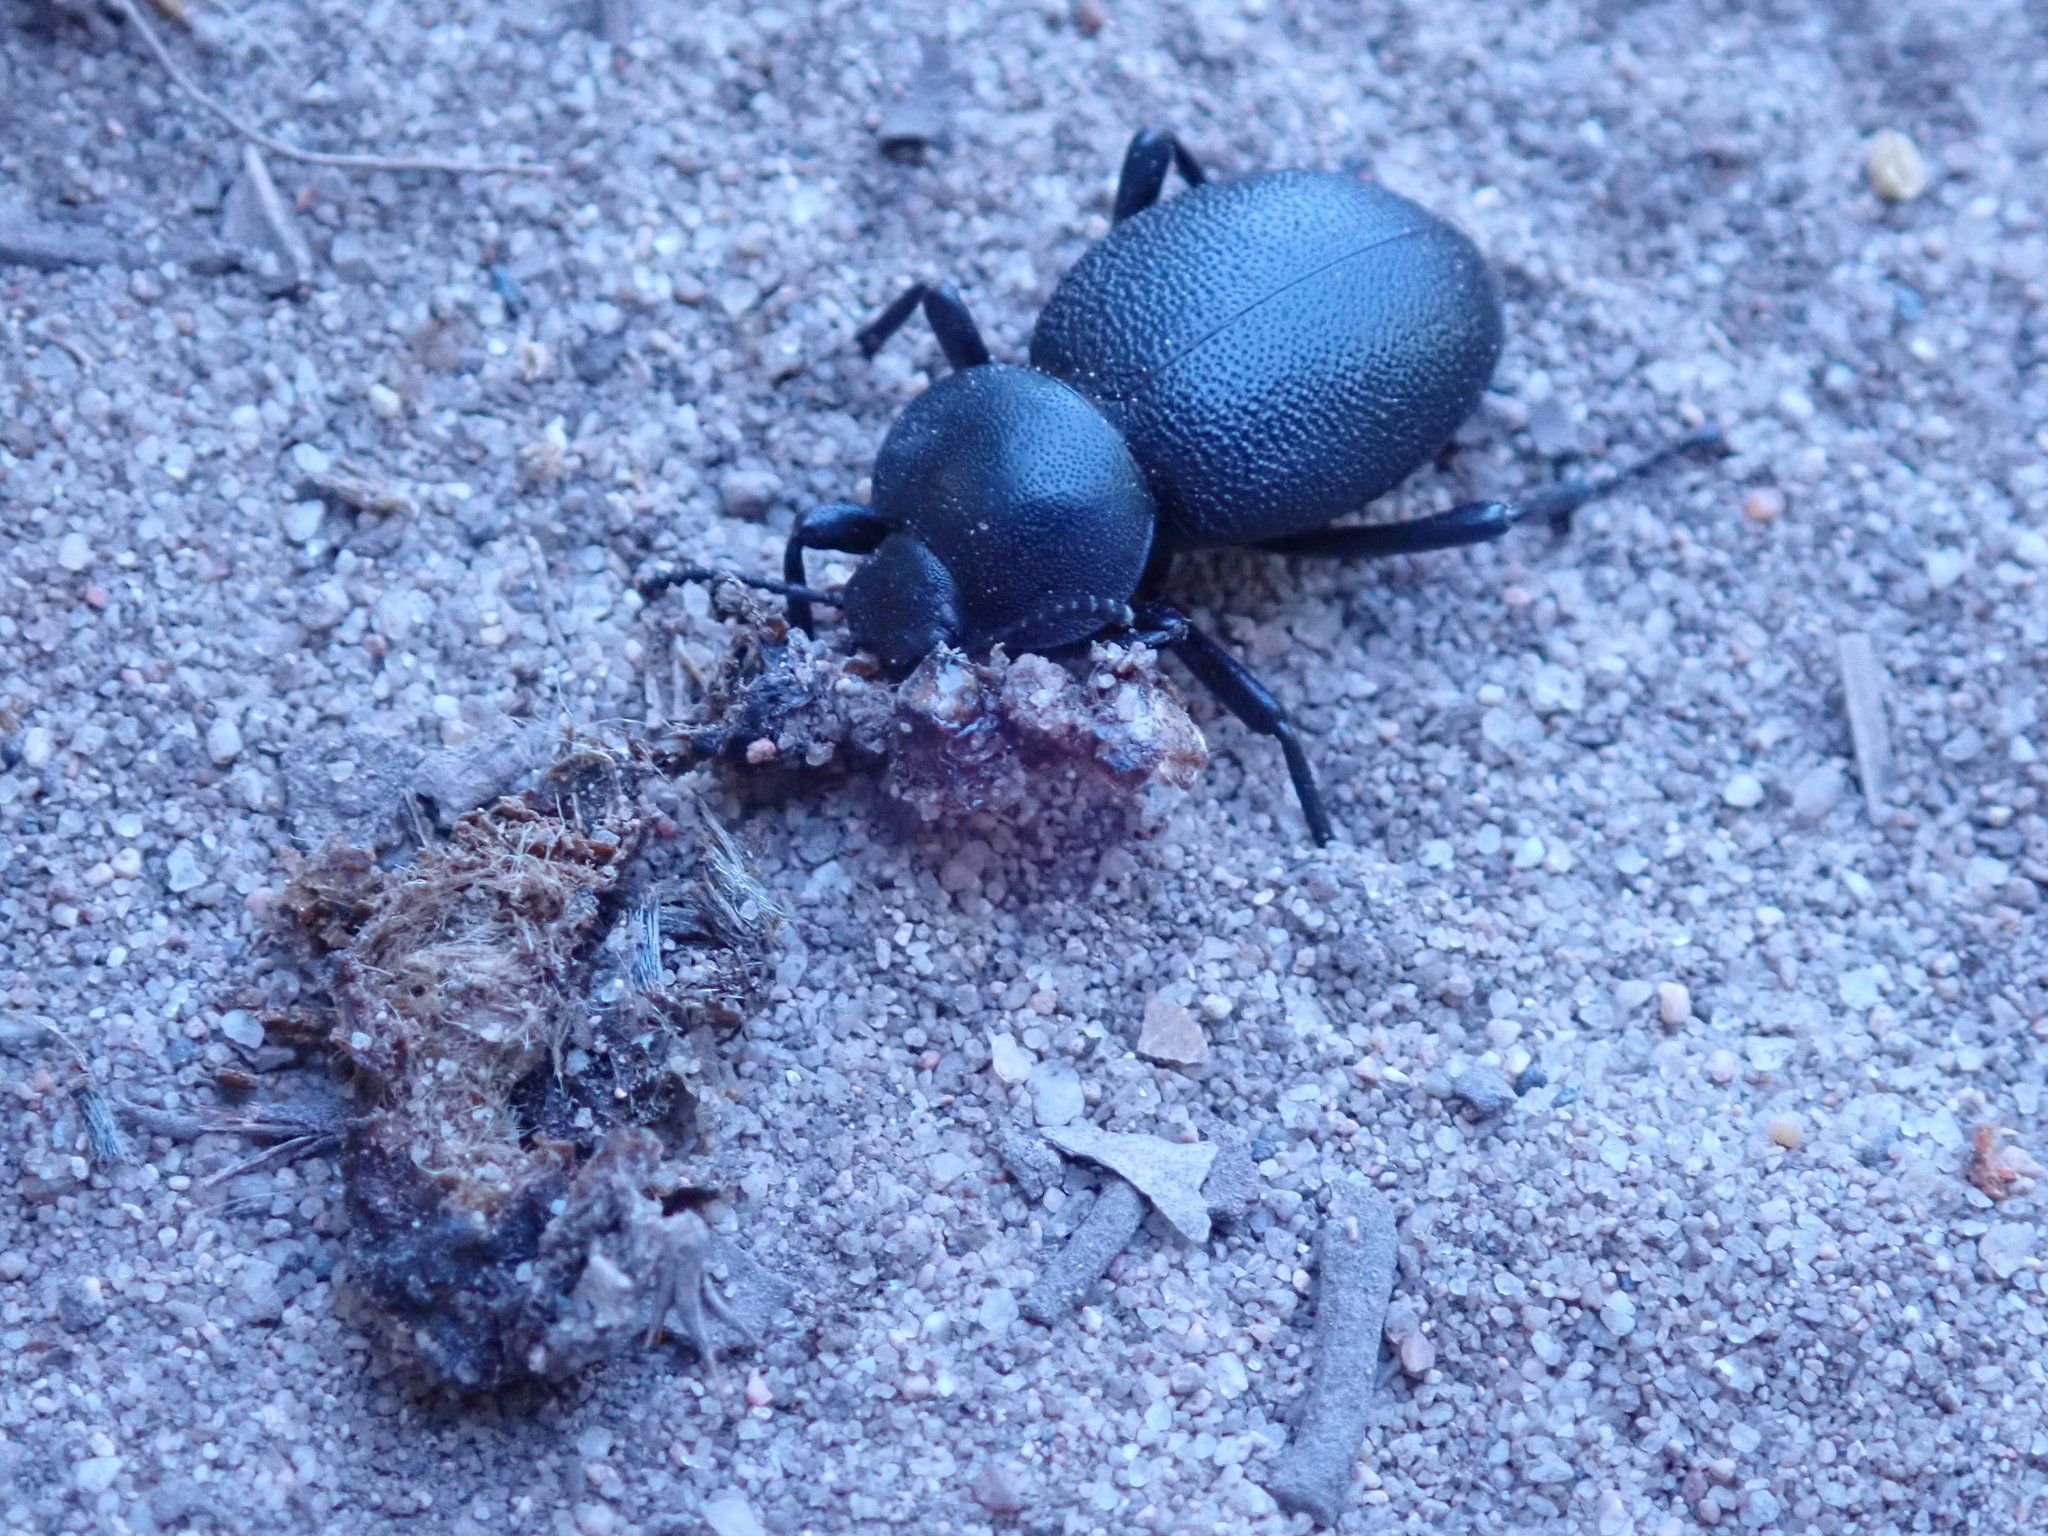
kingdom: Animalia
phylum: Arthropoda
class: Insecta
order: Coleoptera
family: Tenebrionidae
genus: Eleodes
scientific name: Eleodes marginata
